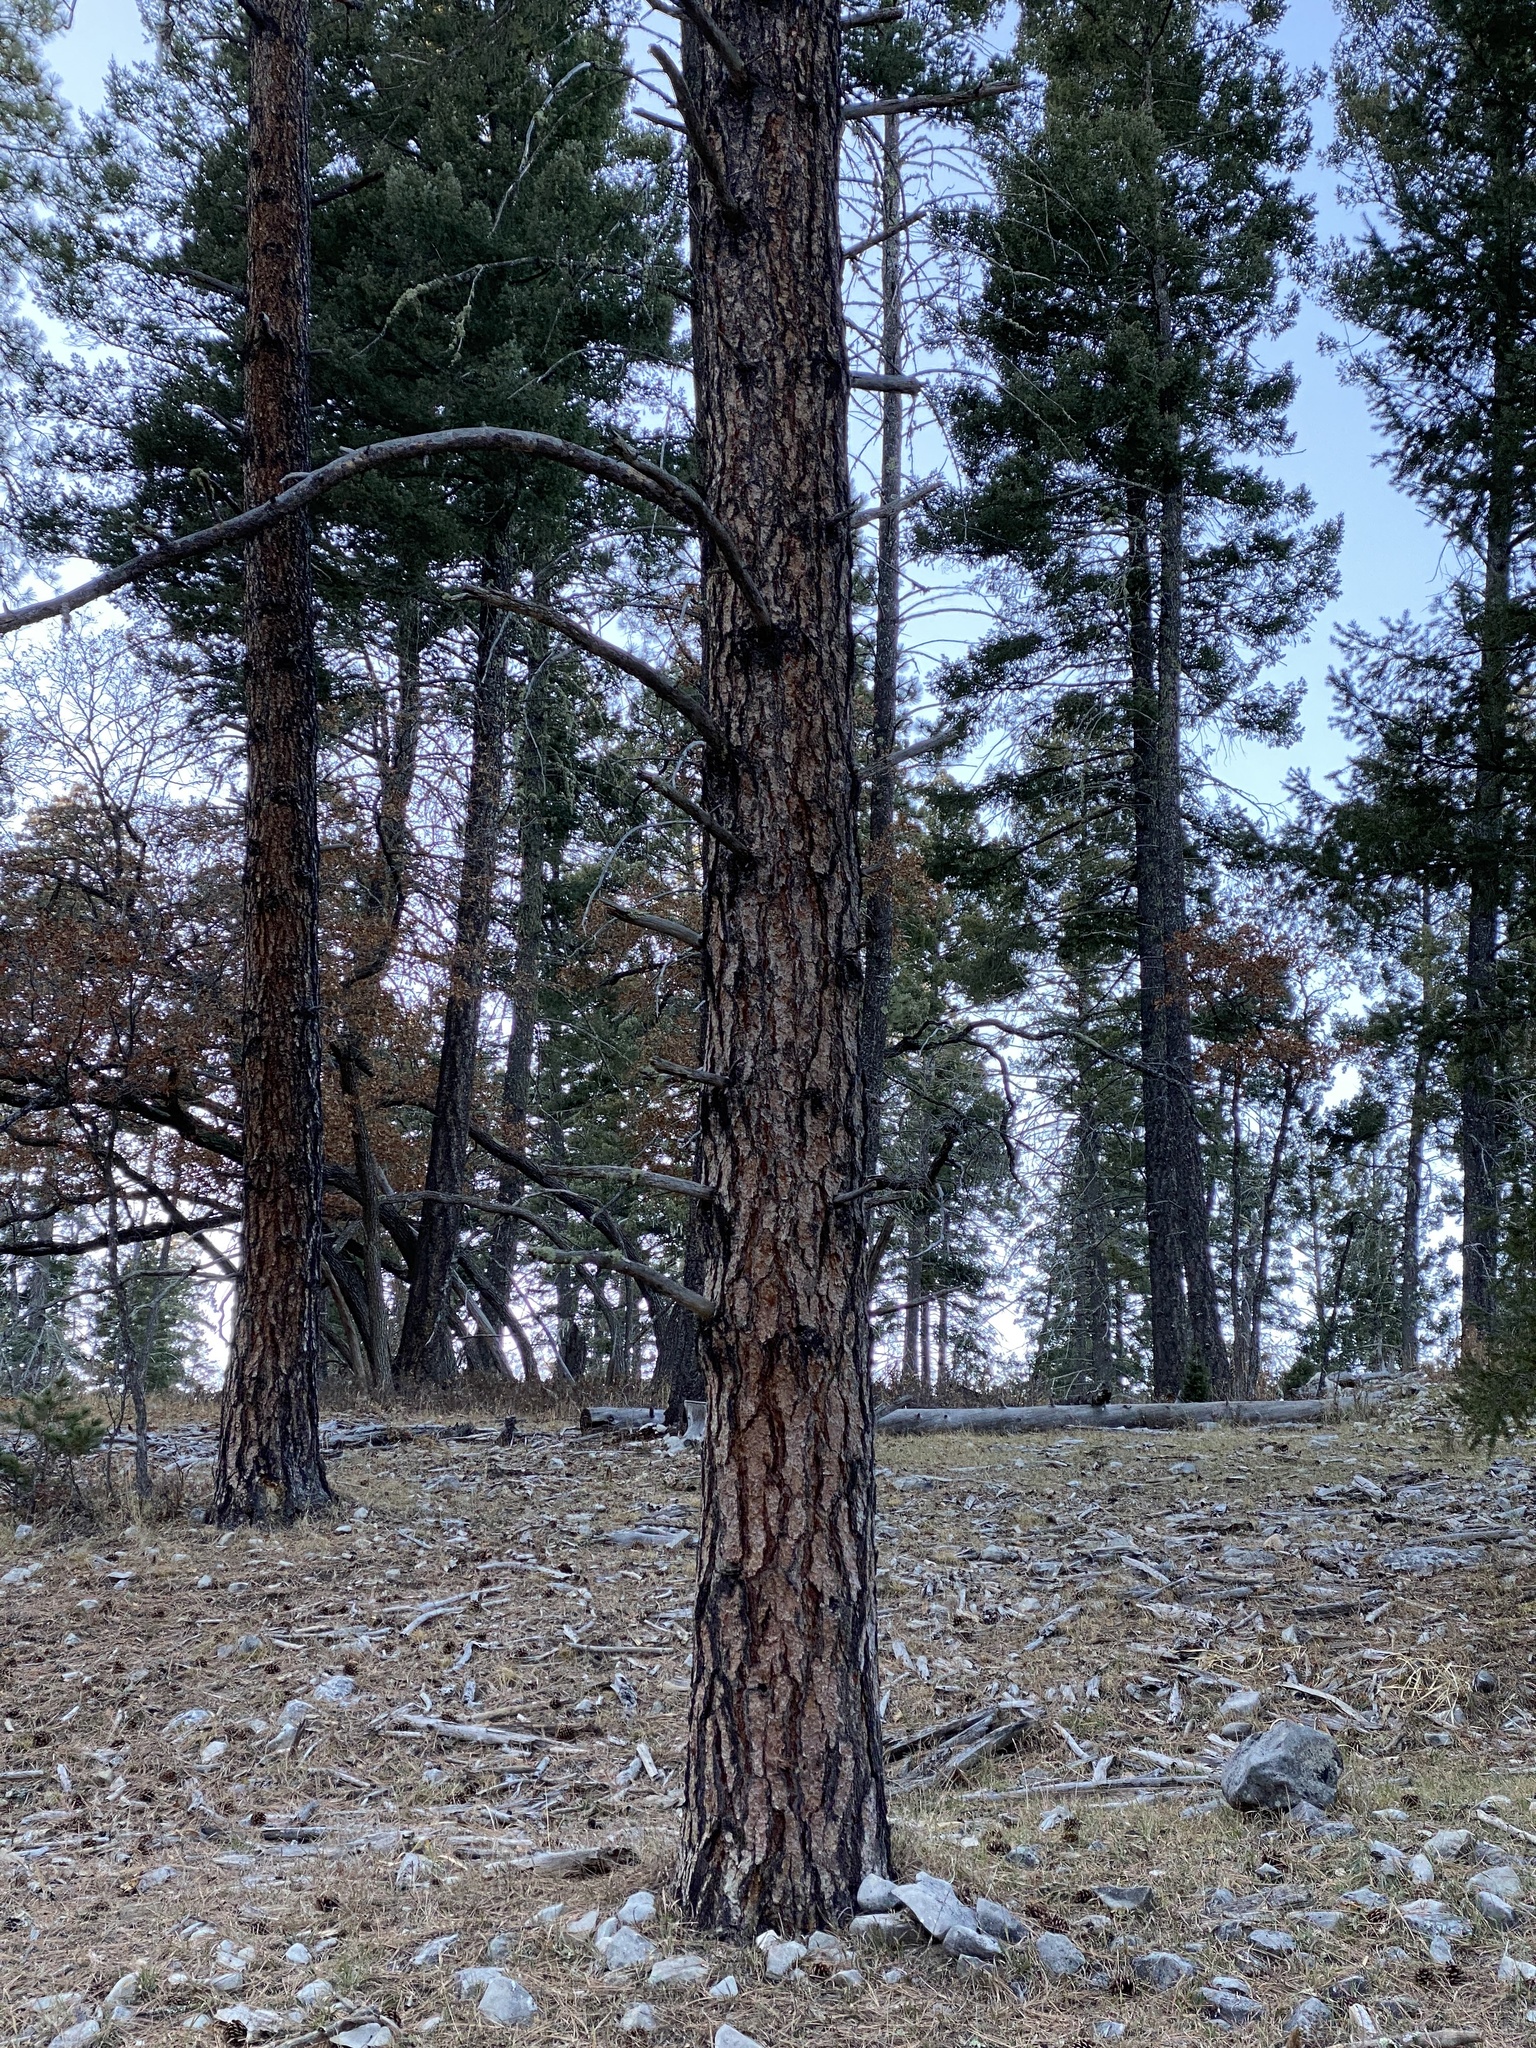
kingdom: Plantae
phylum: Tracheophyta
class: Pinopsida
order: Pinales
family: Pinaceae
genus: Pinus
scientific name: Pinus ponderosa
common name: Western yellow-pine
